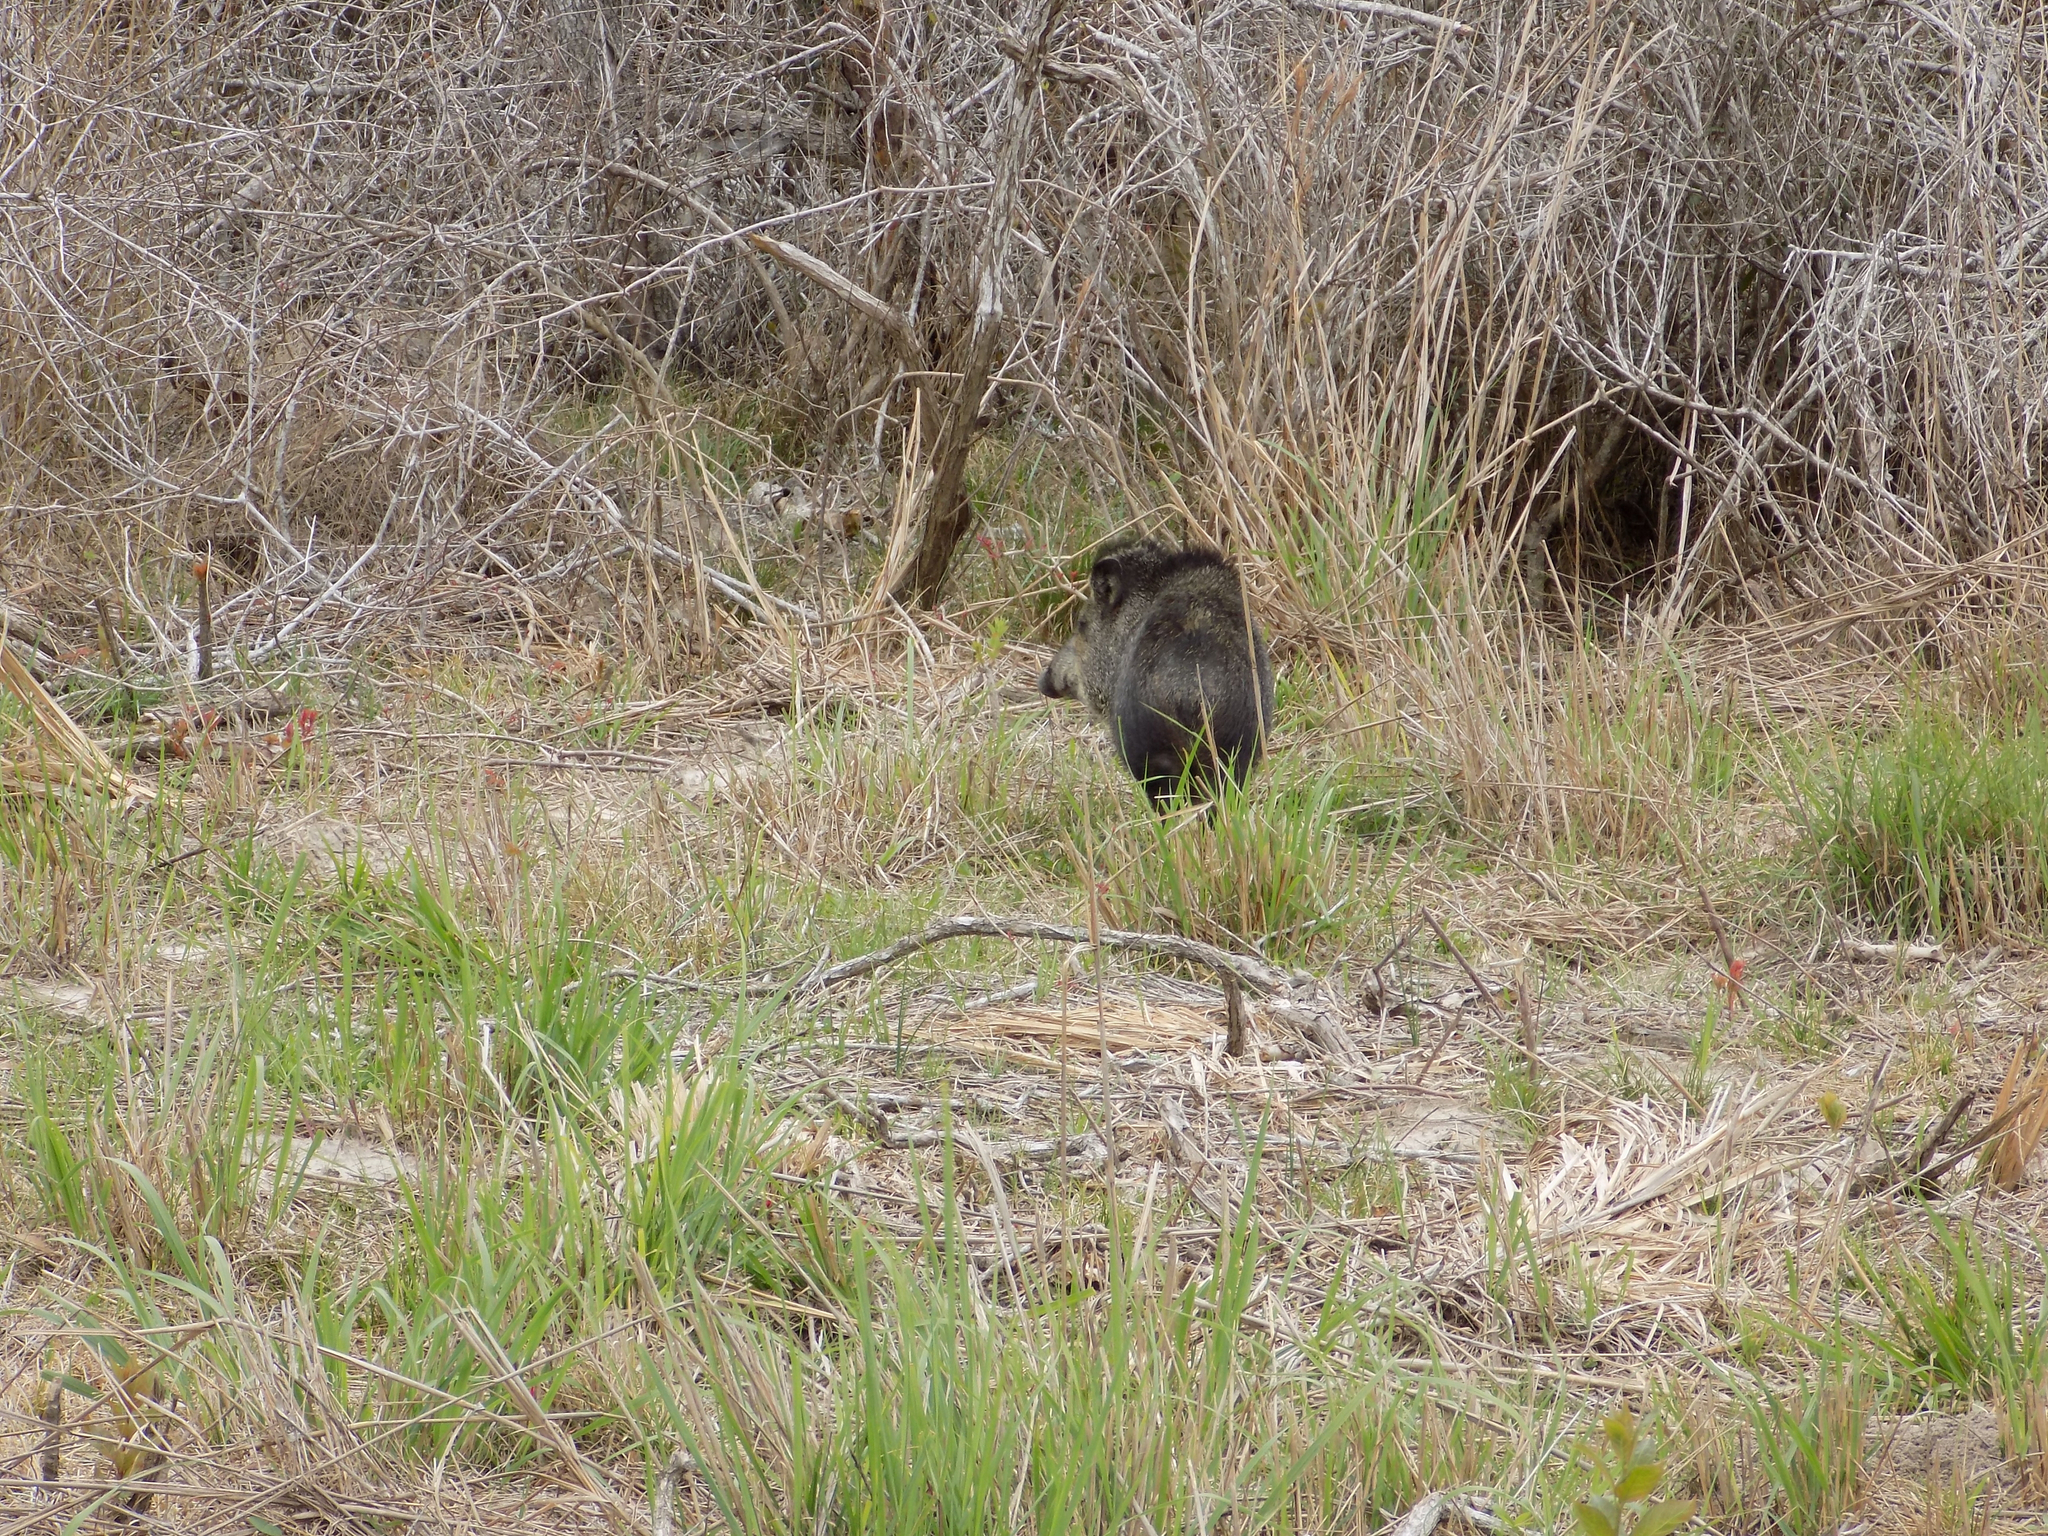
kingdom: Animalia
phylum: Chordata
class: Mammalia
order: Artiodactyla
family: Tayassuidae
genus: Pecari
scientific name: Pecari tajacu
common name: Collared peccary
